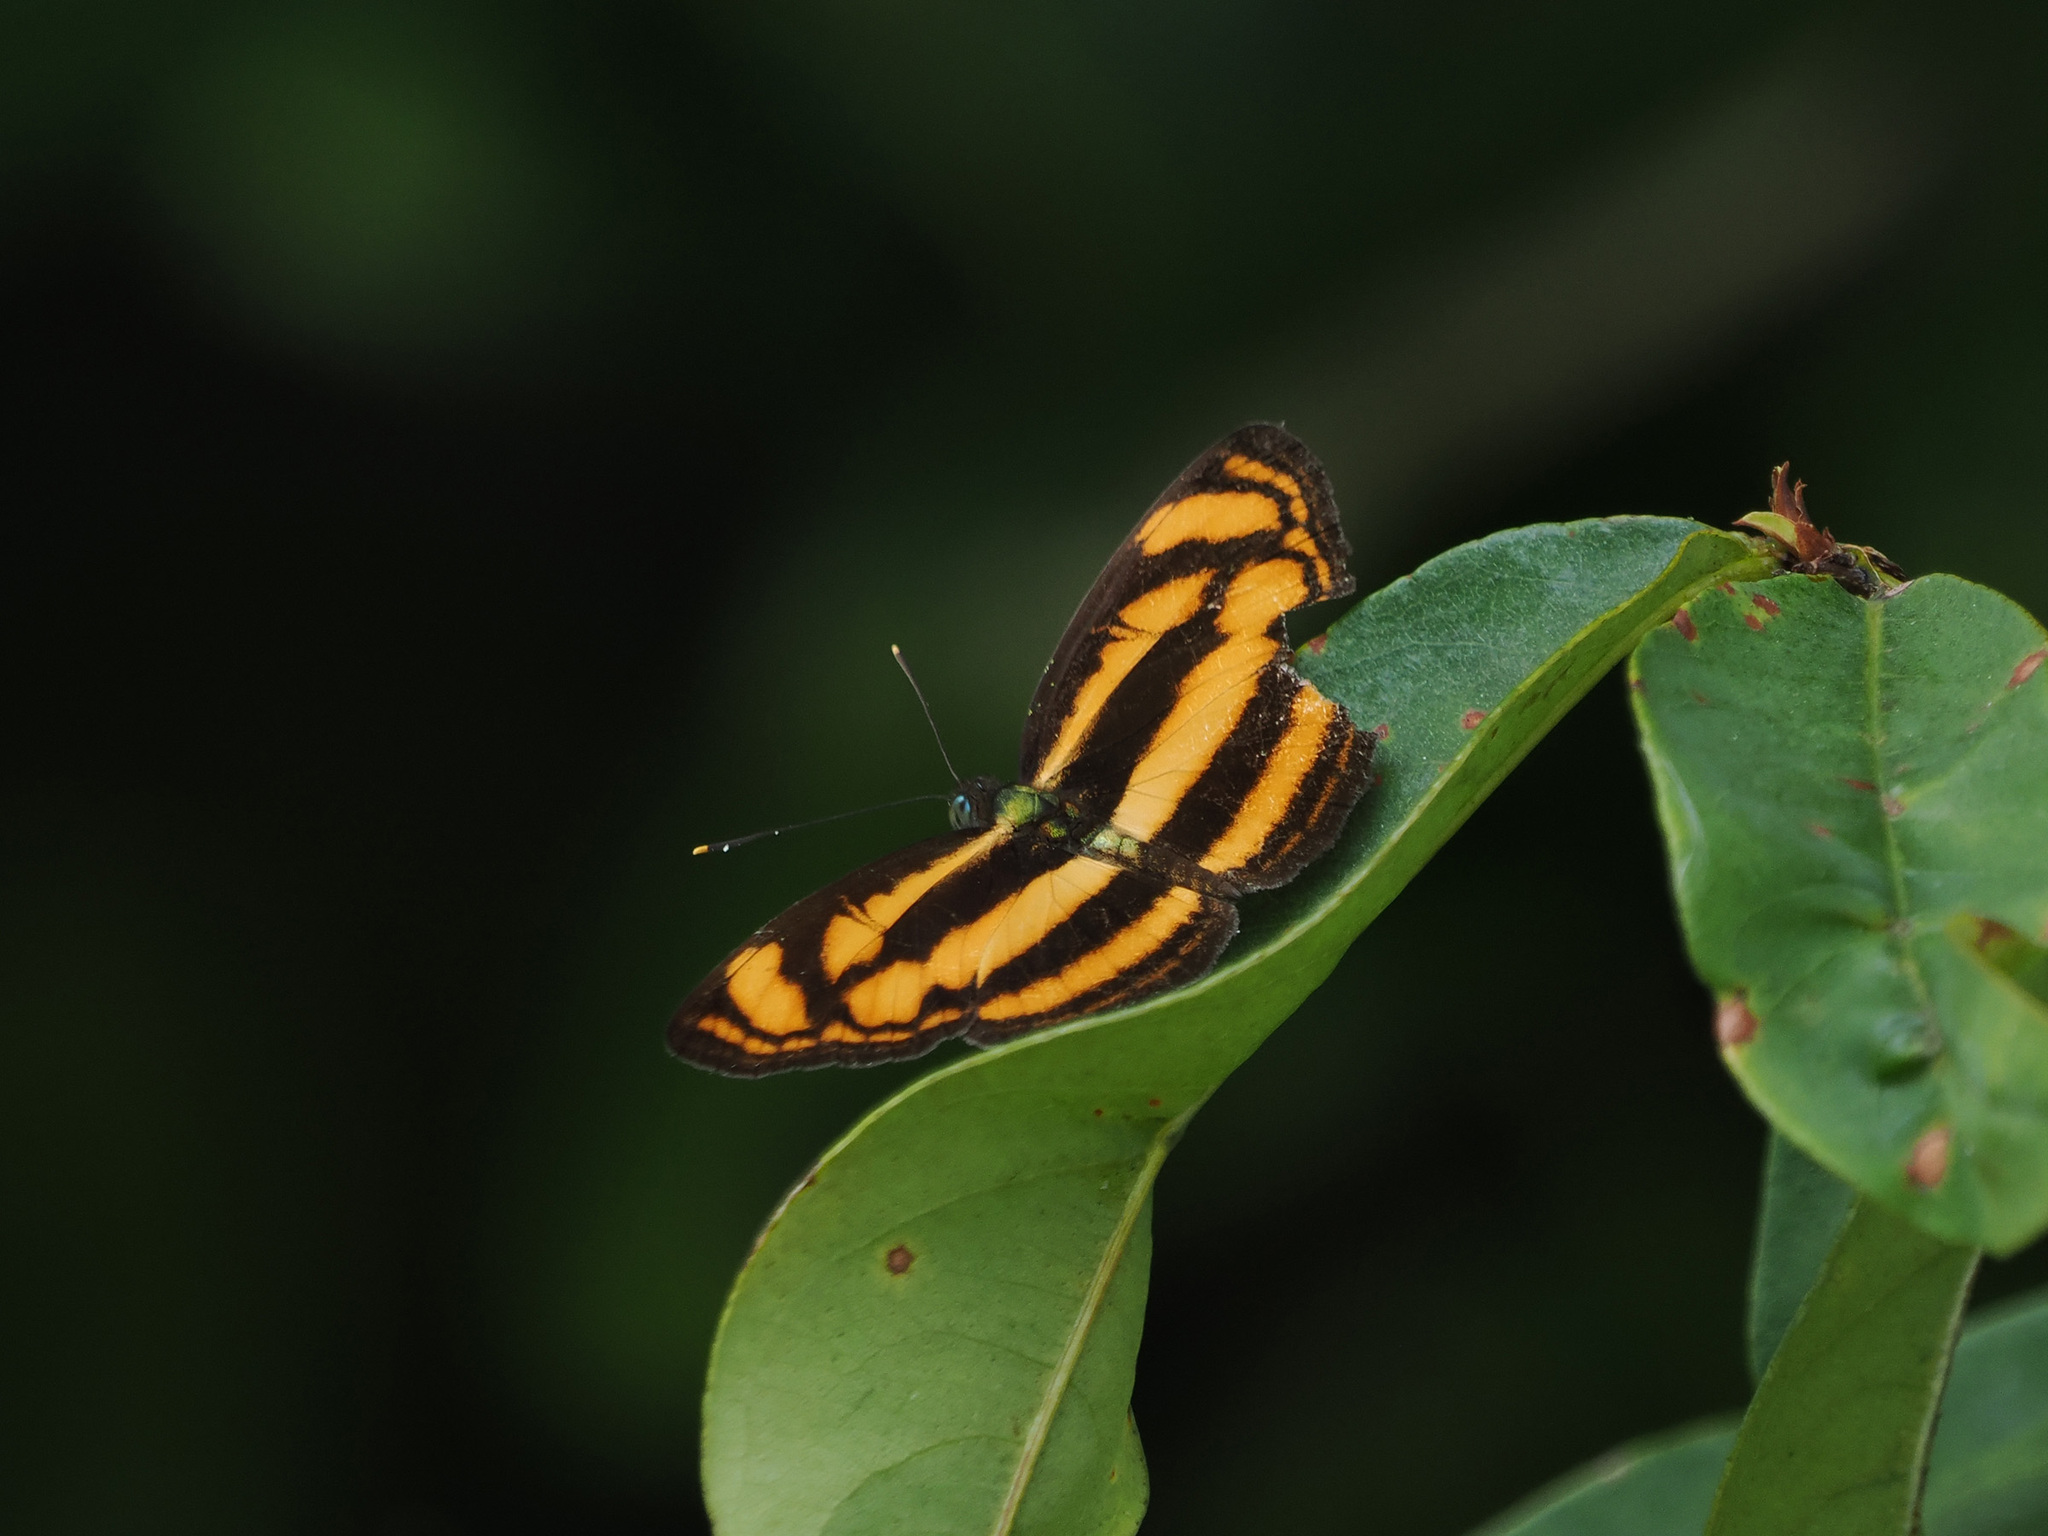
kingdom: Animalia
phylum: Arthropoda
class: Insecta
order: Lepidoptera
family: Nymphalidae
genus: Lasippa
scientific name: Lasippa tiga
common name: Malayan lascar
